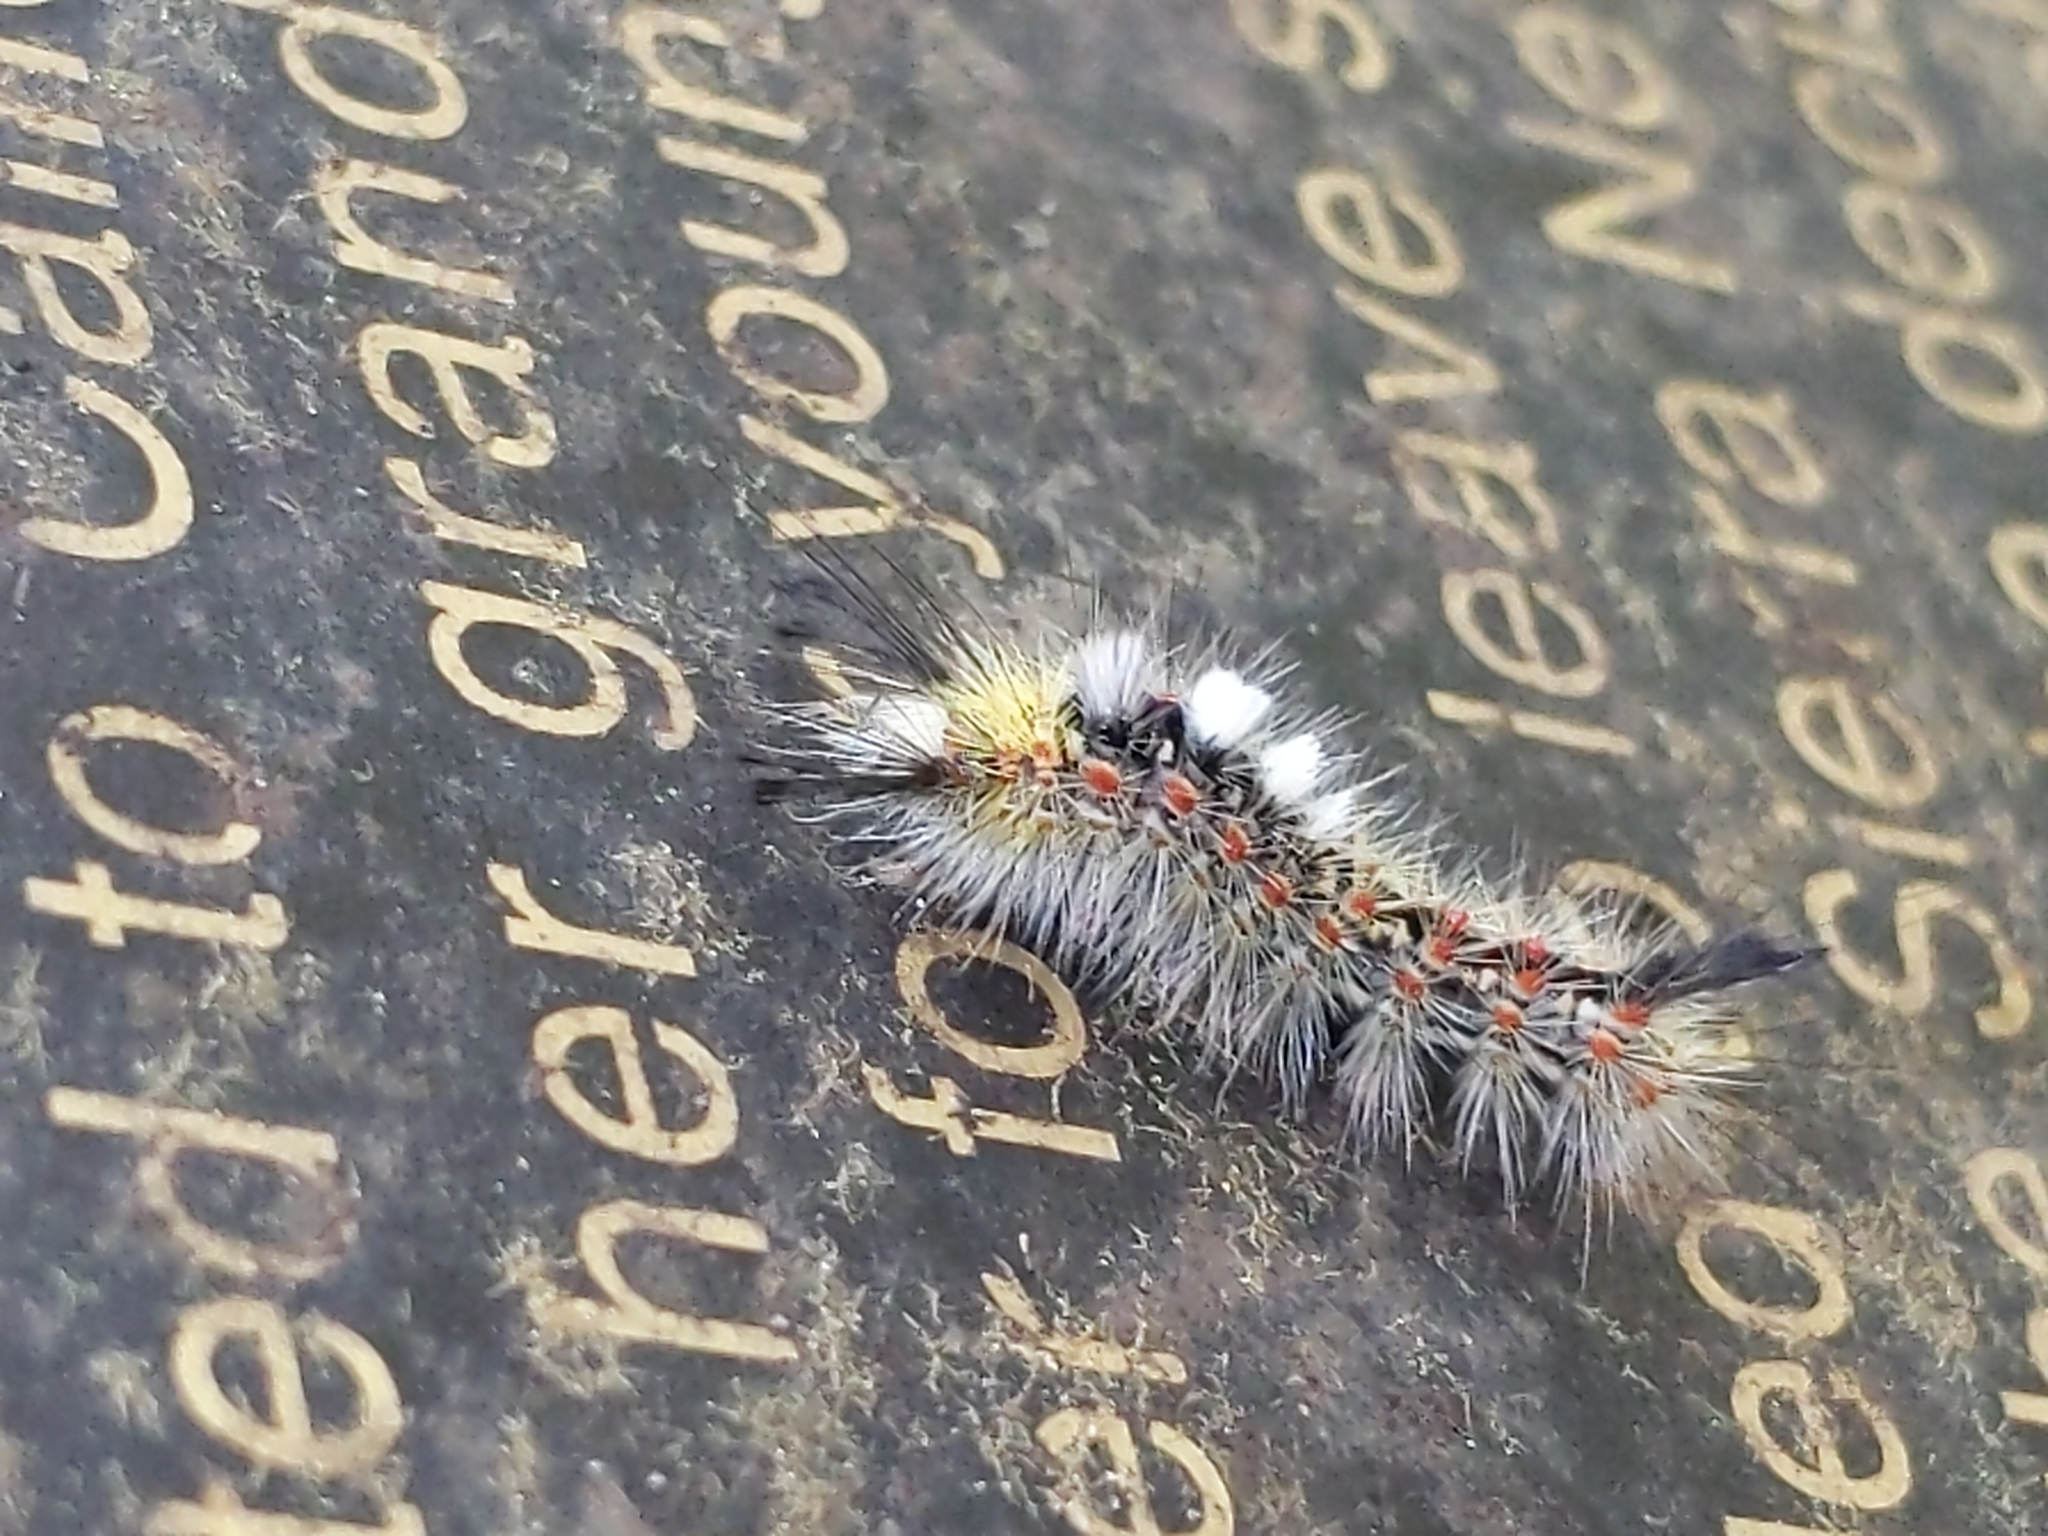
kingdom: Animalia
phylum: Arthropoda
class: Insecta
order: Lepidoptera
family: Erebidae
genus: Orgyia
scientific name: Orgyia vetusta
